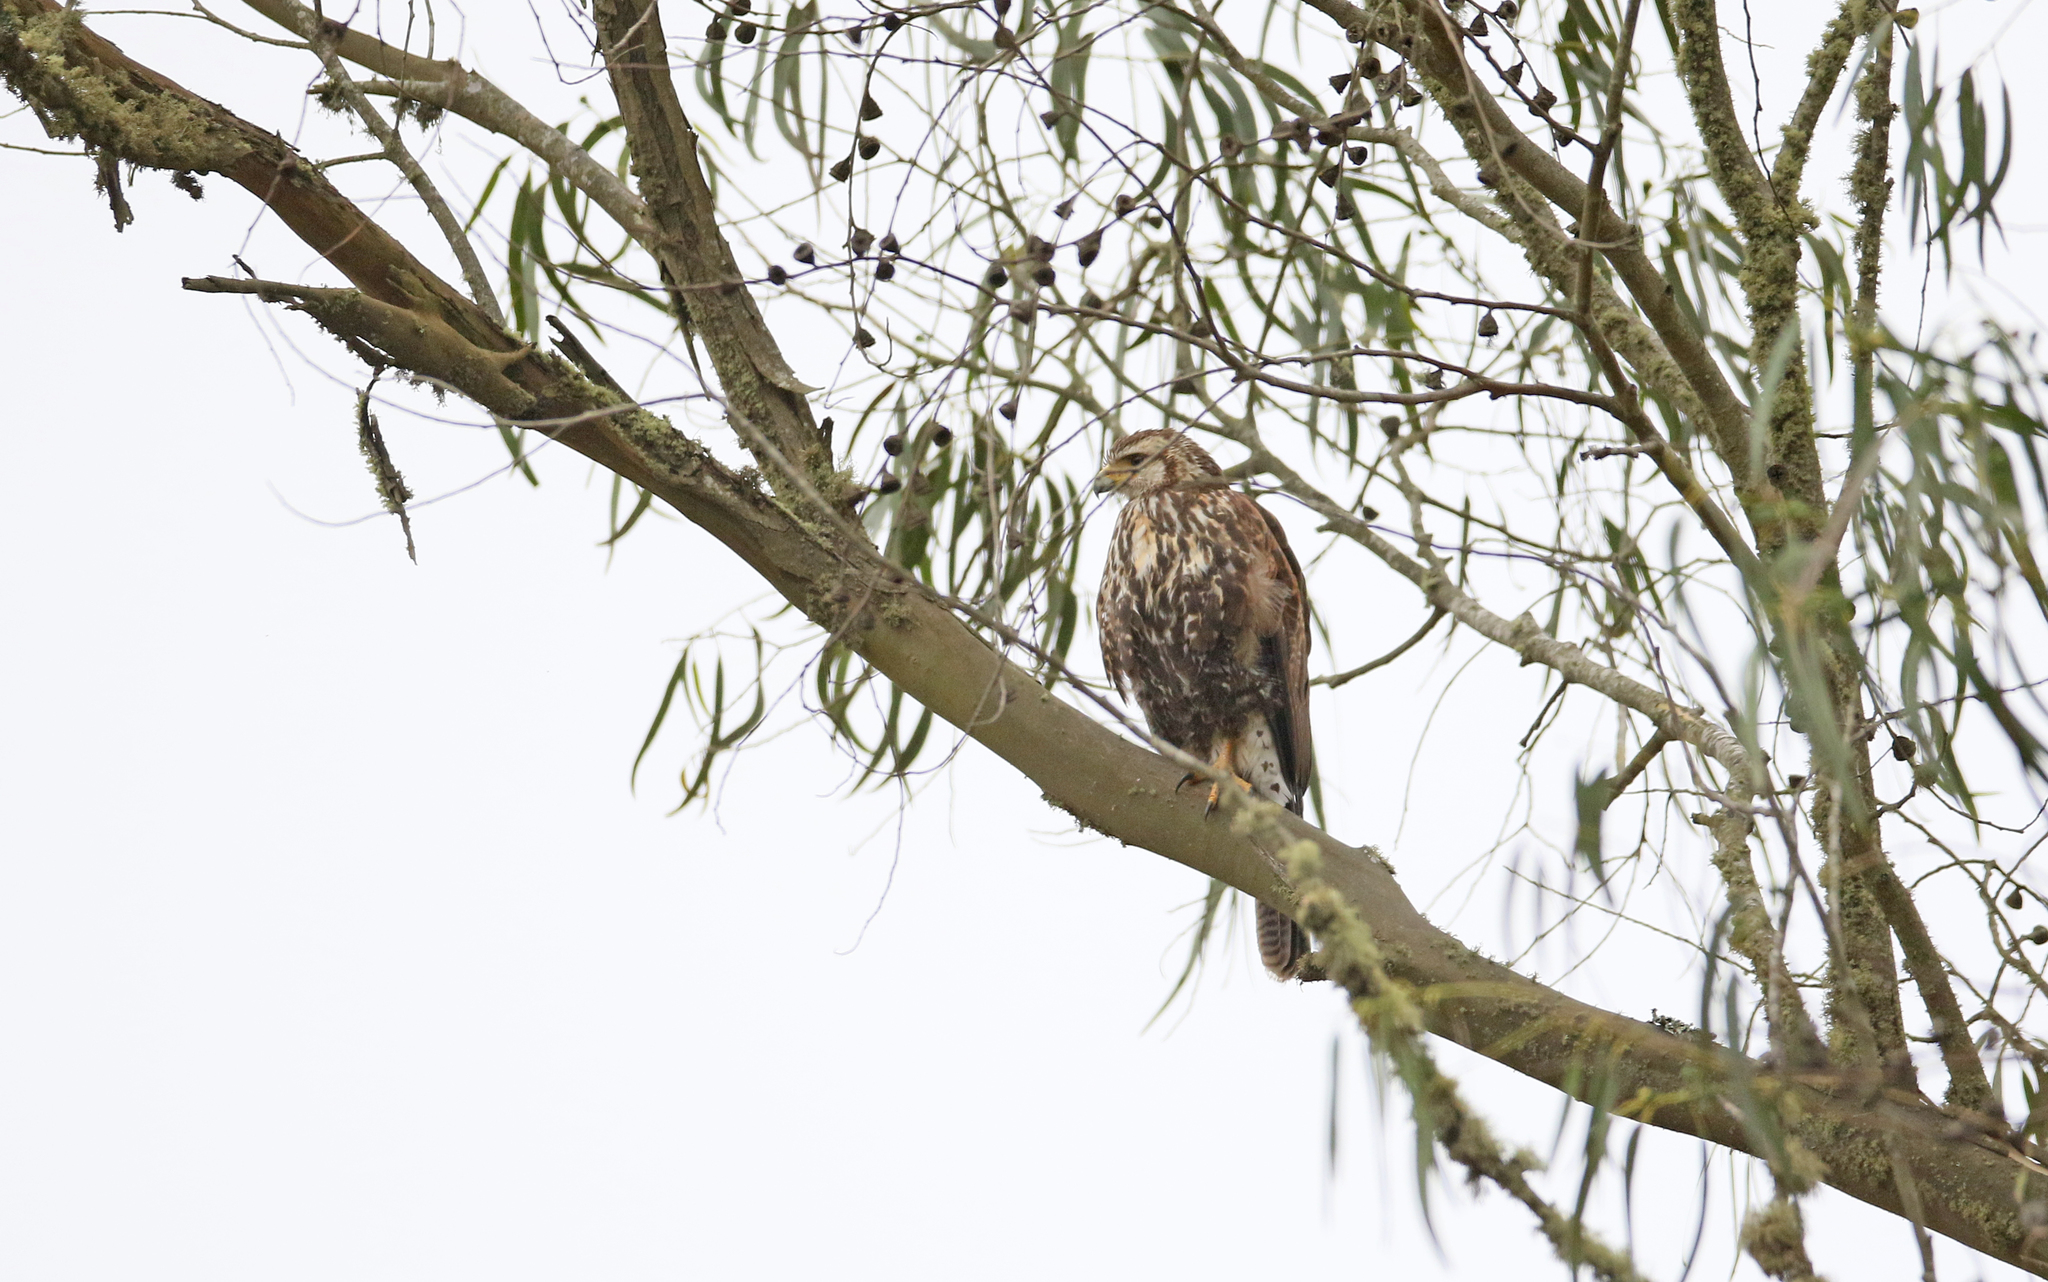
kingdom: Animalia
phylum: Chordata
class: Aves
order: Accipitriformes
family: Accipitridae
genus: Parabuteo
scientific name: Parabuteo unicinctus
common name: Harris's hawk
